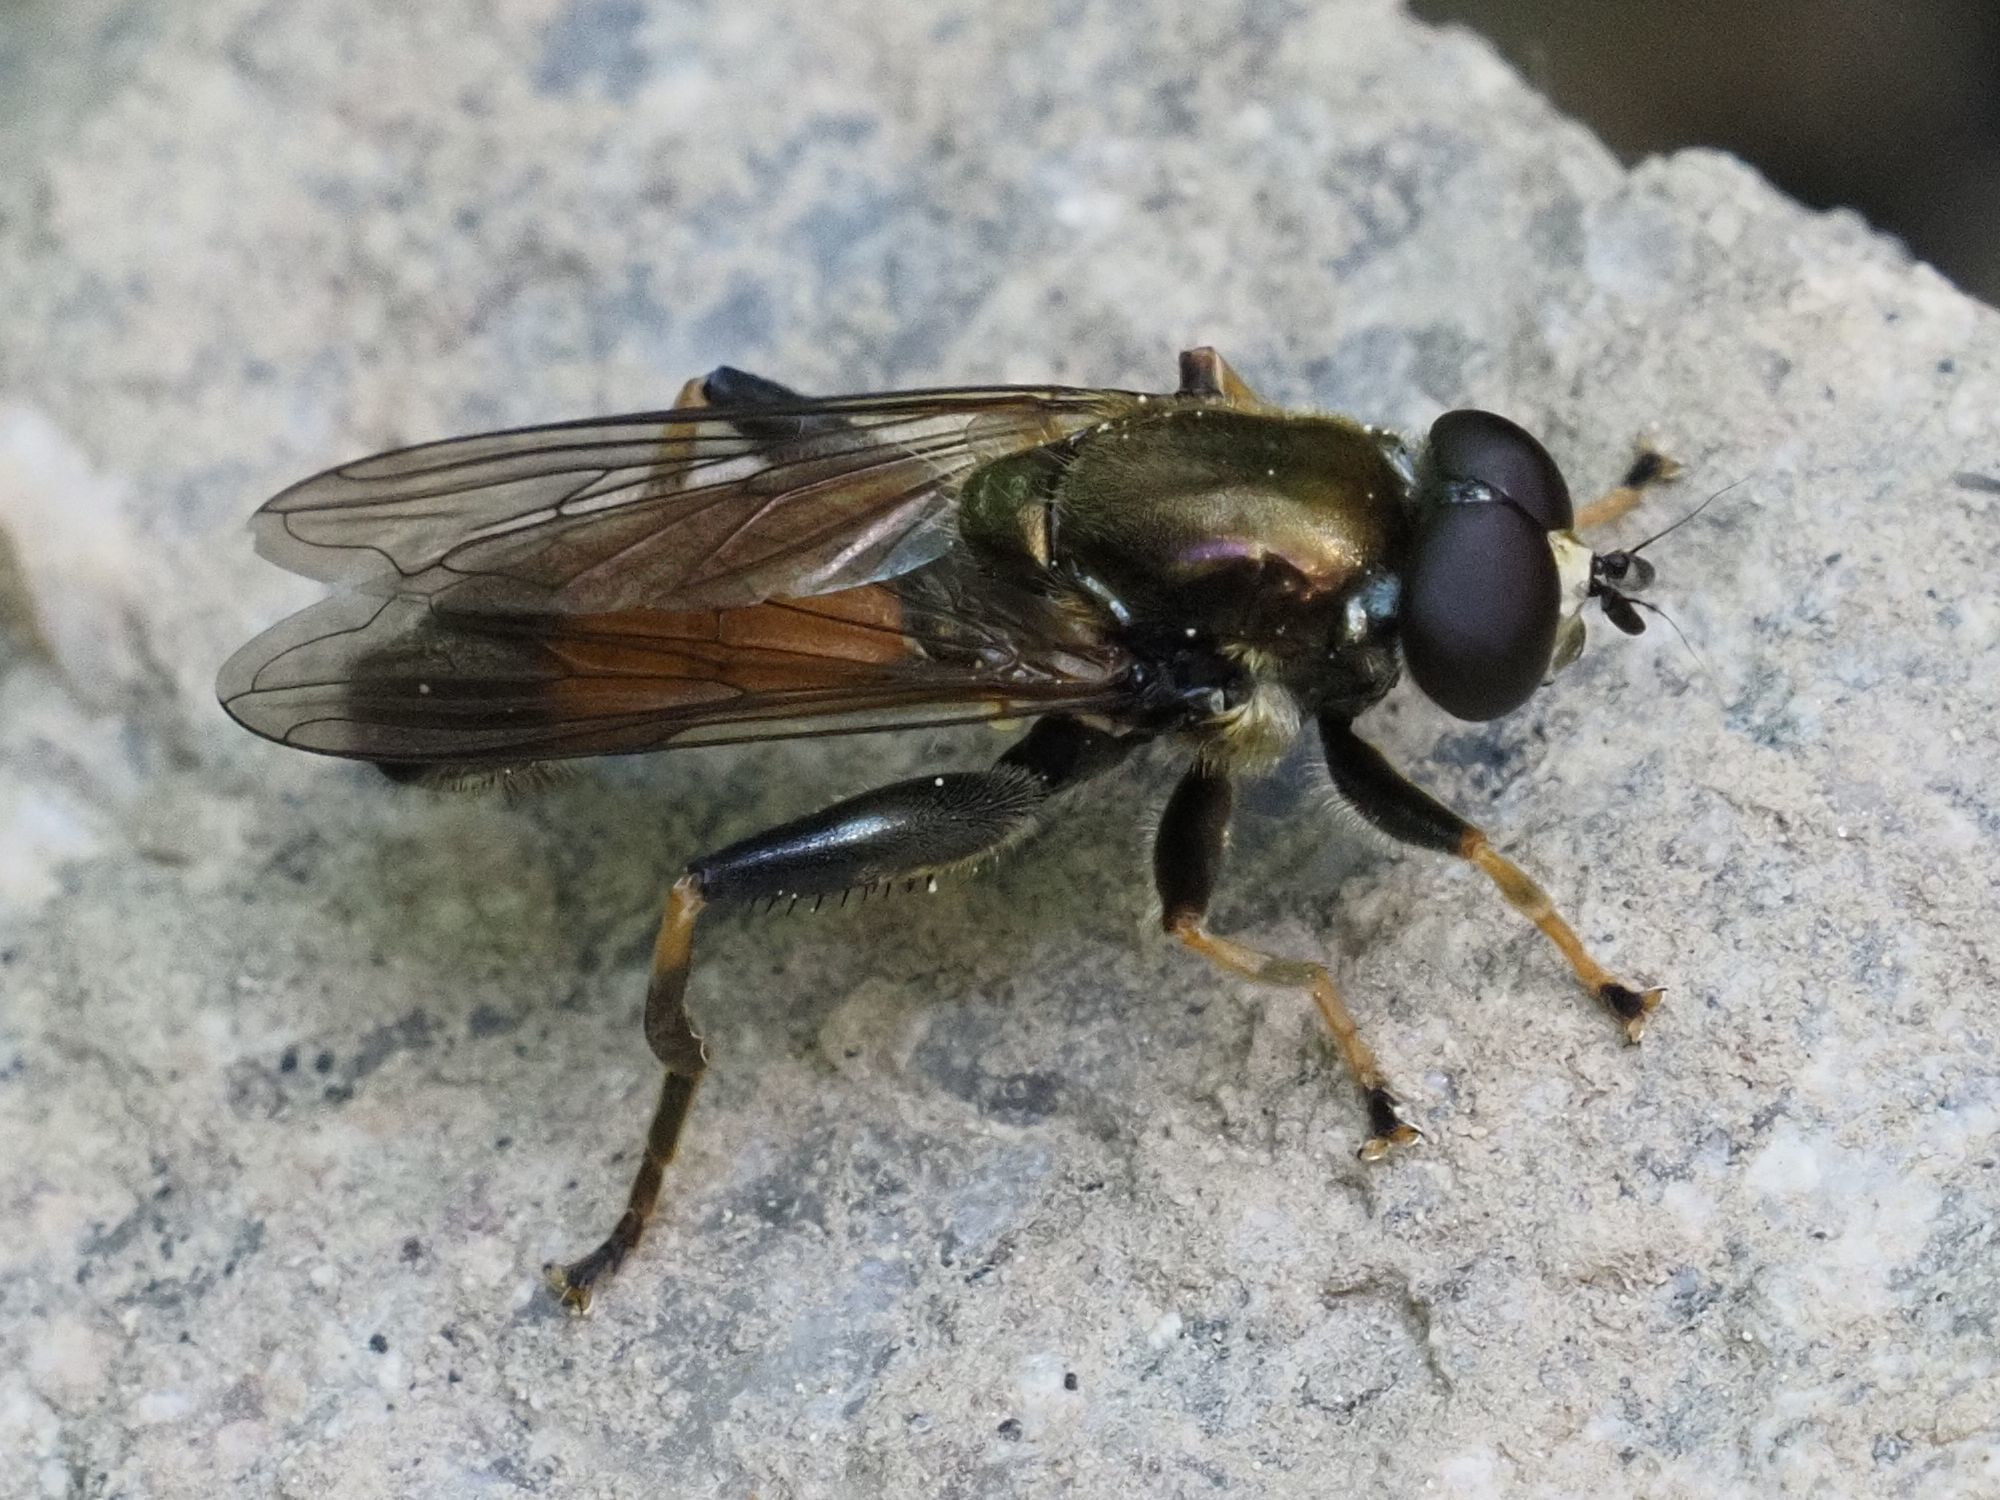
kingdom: Animalia
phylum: Arthropoda
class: Insecta
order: Diptera
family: Syrphidae
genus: Xylota
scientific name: Xylota segnis
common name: Brown-toed forest fly
